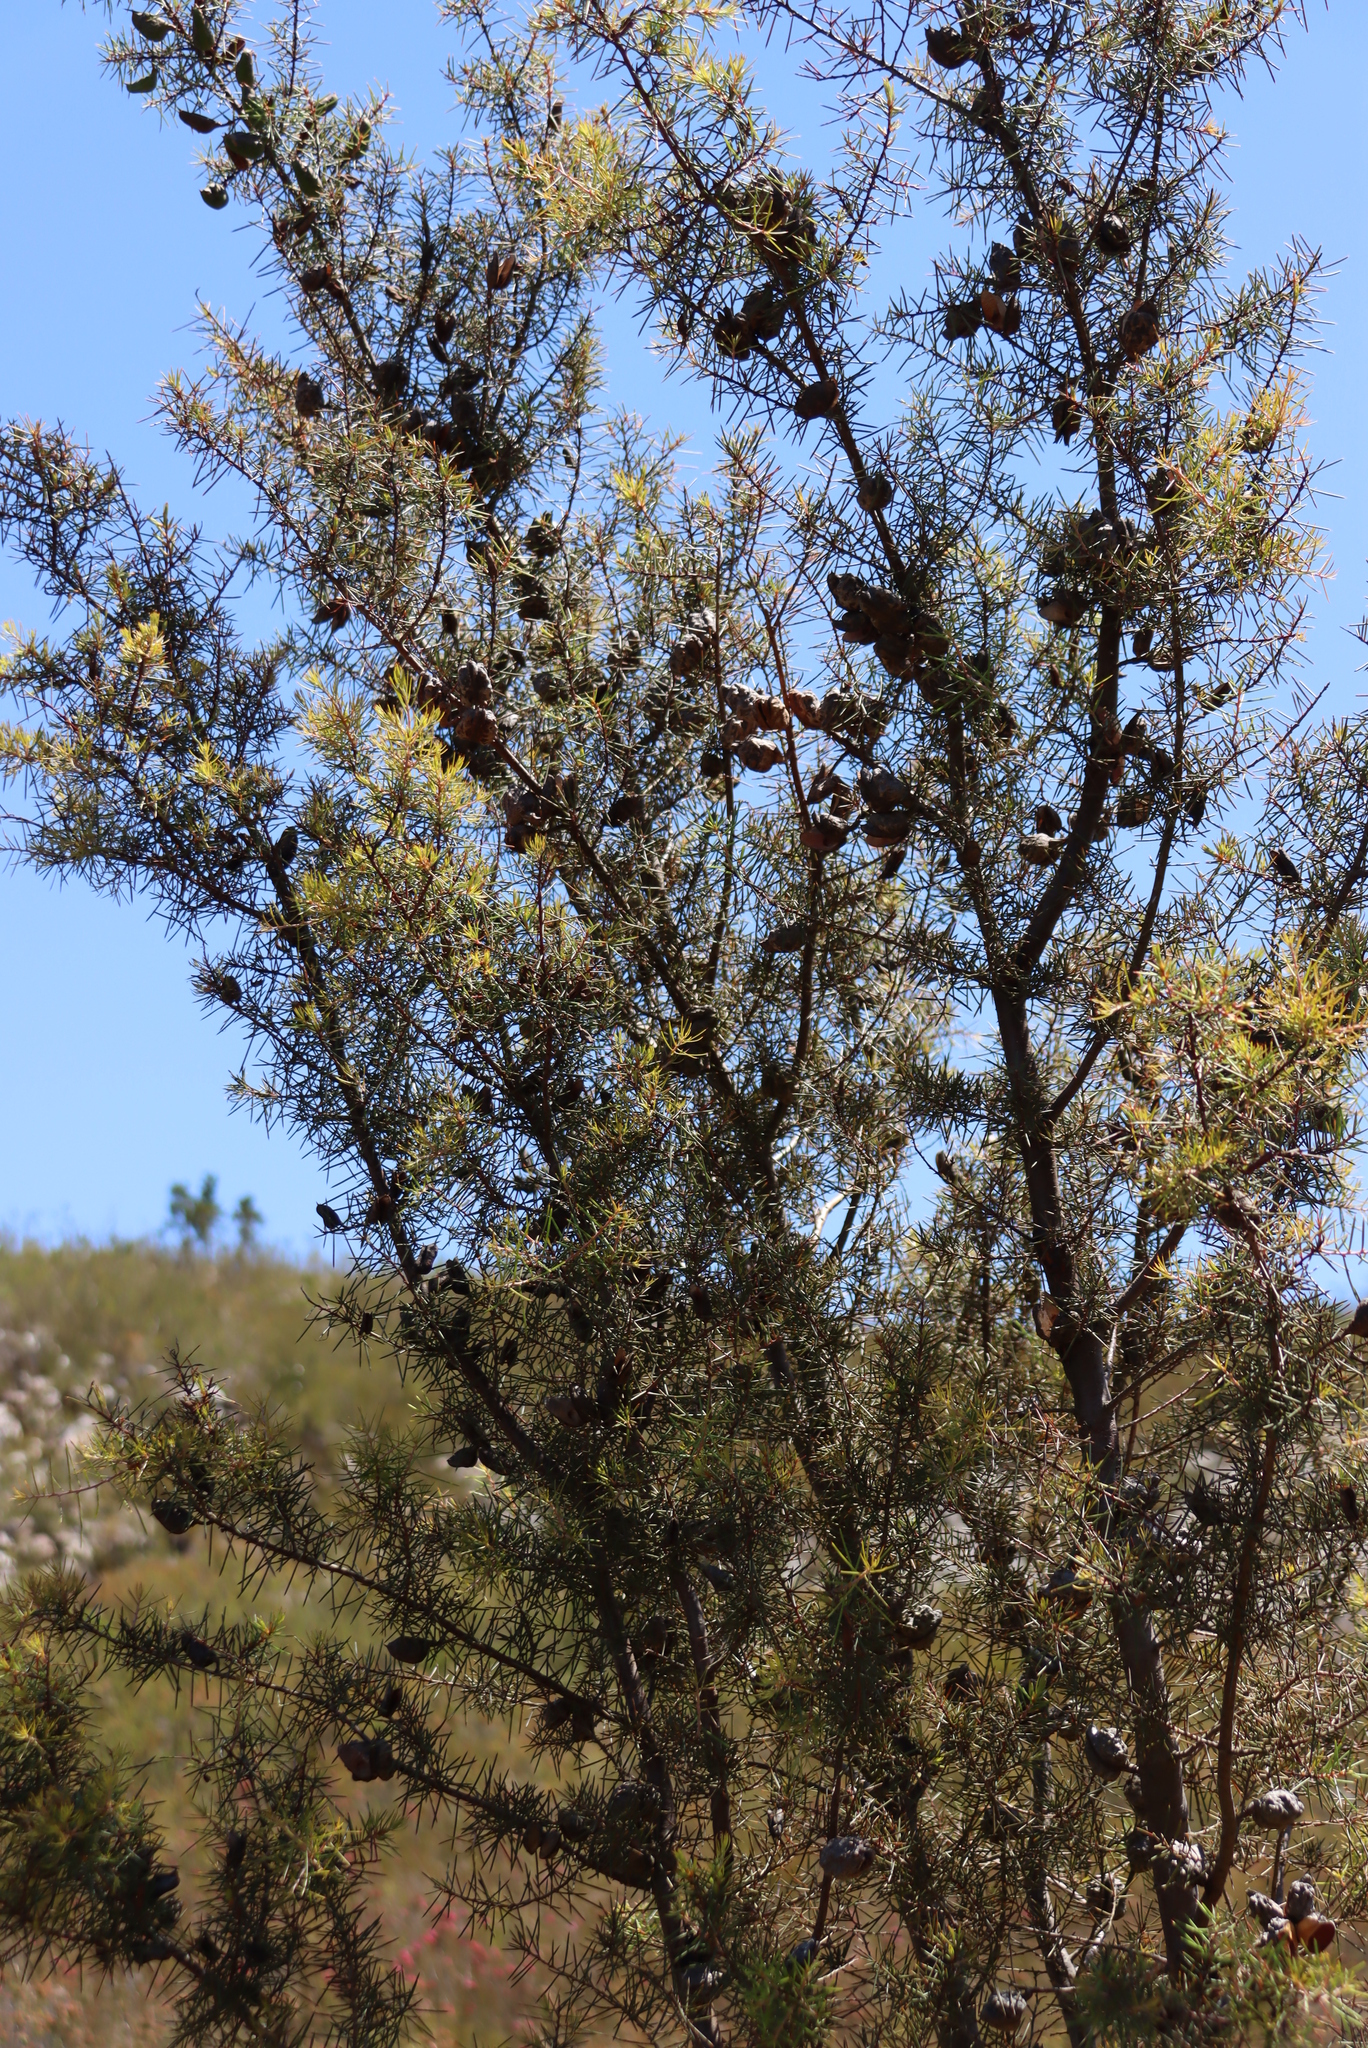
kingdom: Plantae
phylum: Tracheophyta
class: Magnoliopsida
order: Proteales
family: Proteaceae
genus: Hakea
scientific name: Hakea sericea
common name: Needle bush
